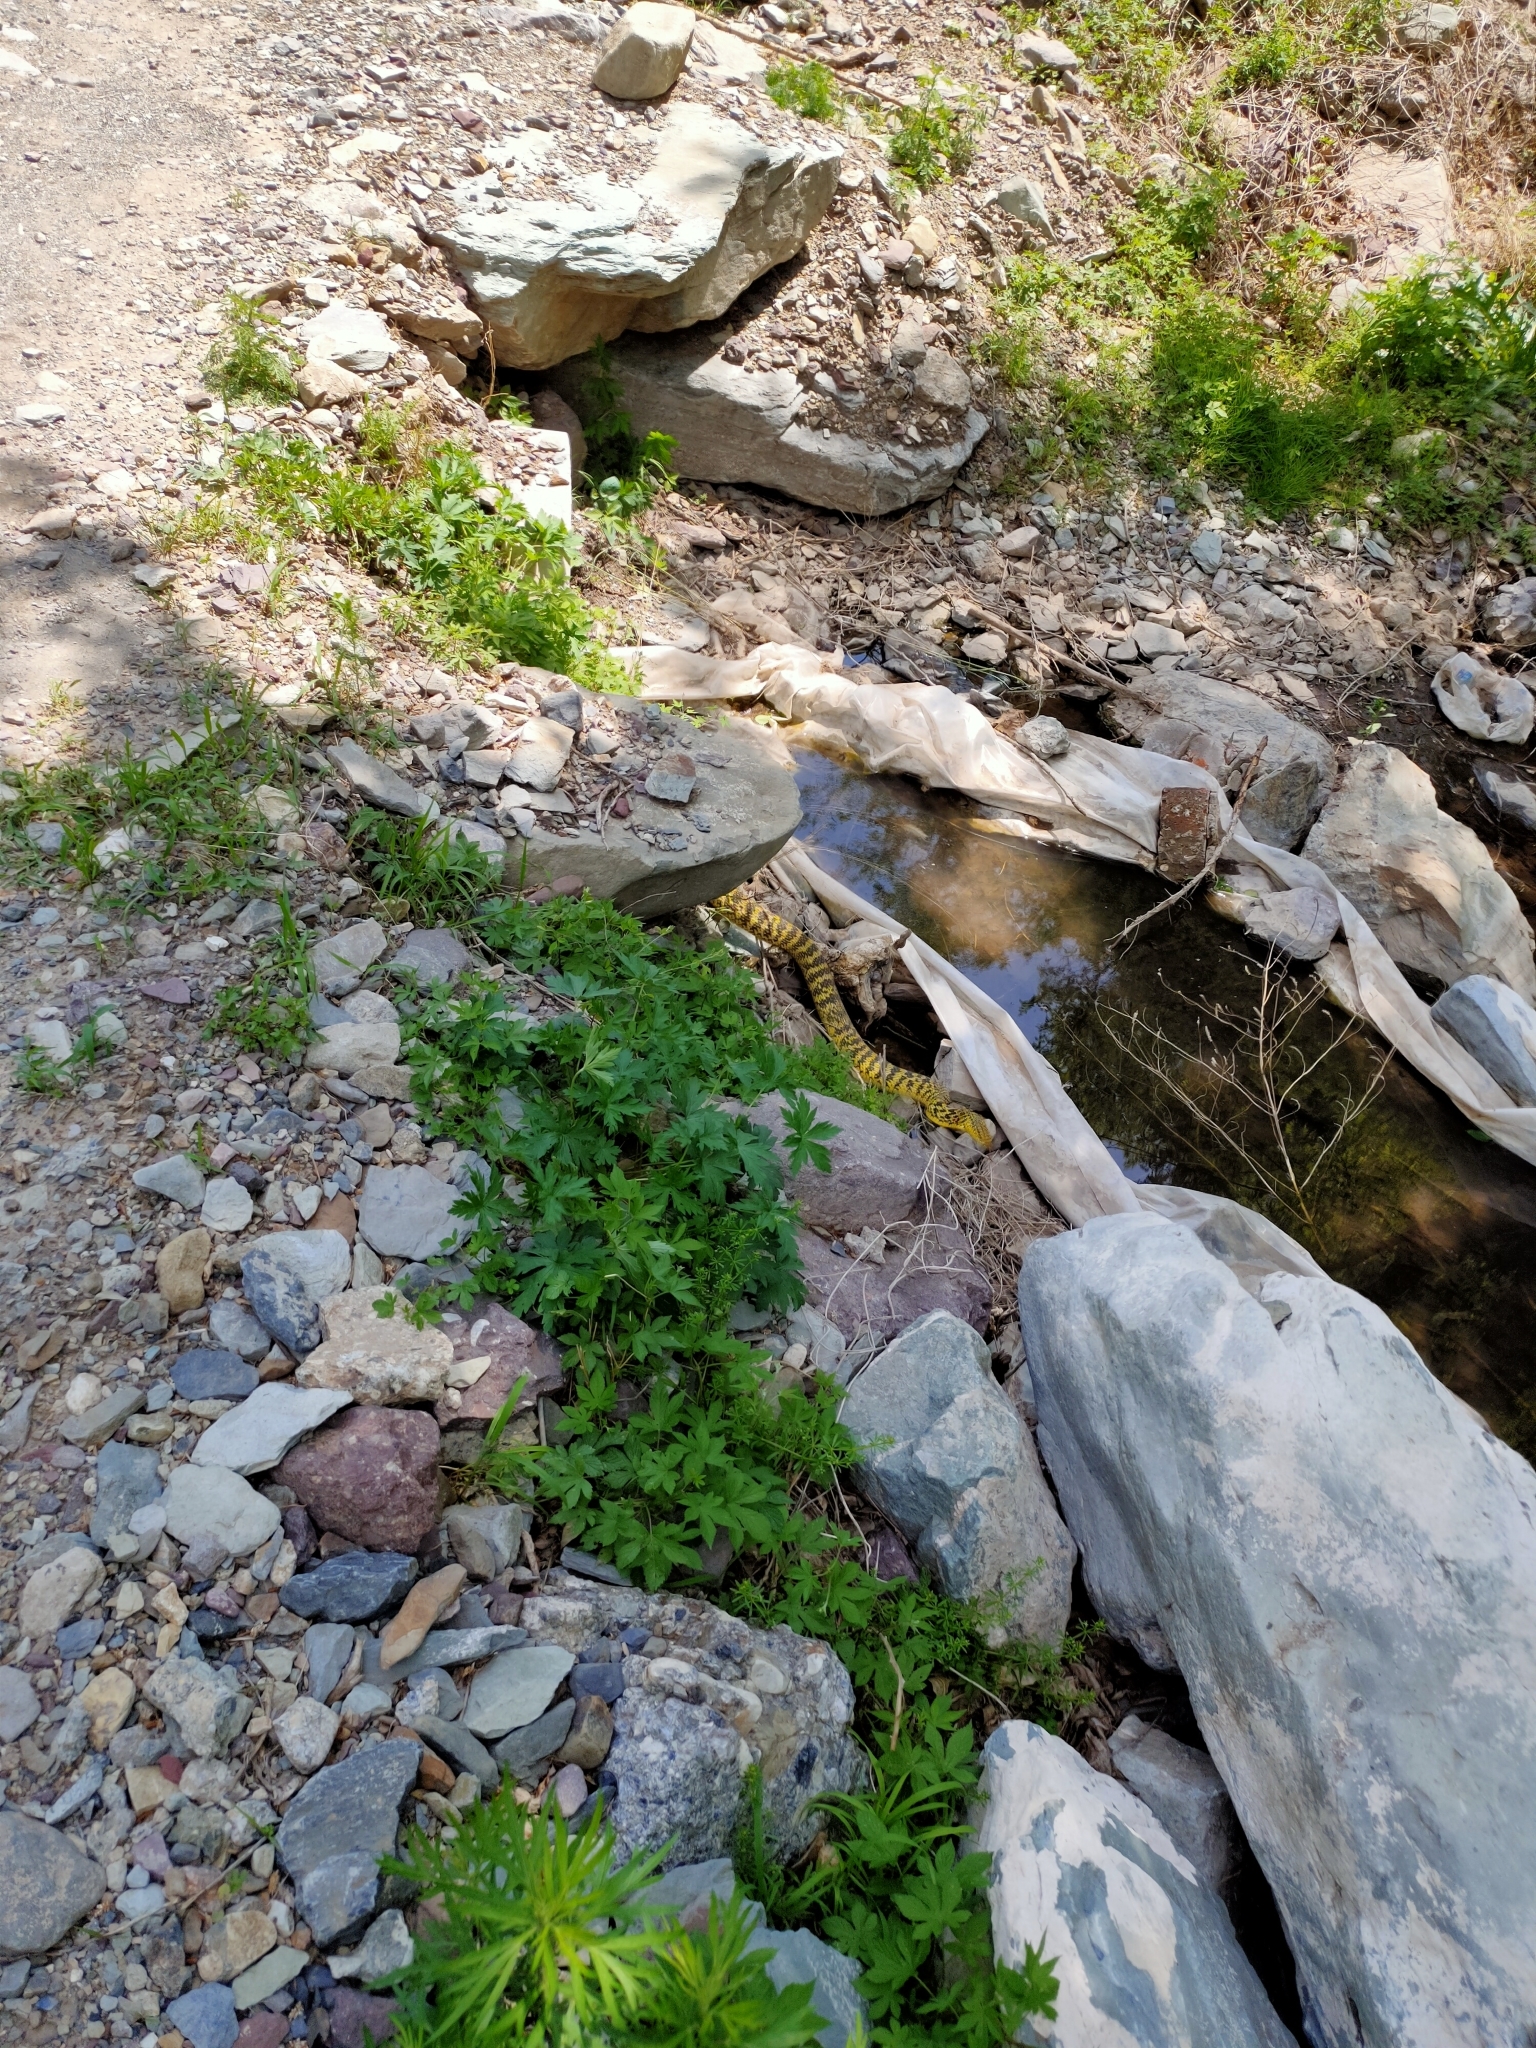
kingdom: Animalia
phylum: Chordata
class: Squamata
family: Colubridae
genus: Elaphe
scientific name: Elaphe carinata
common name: Taiwan stink snake
